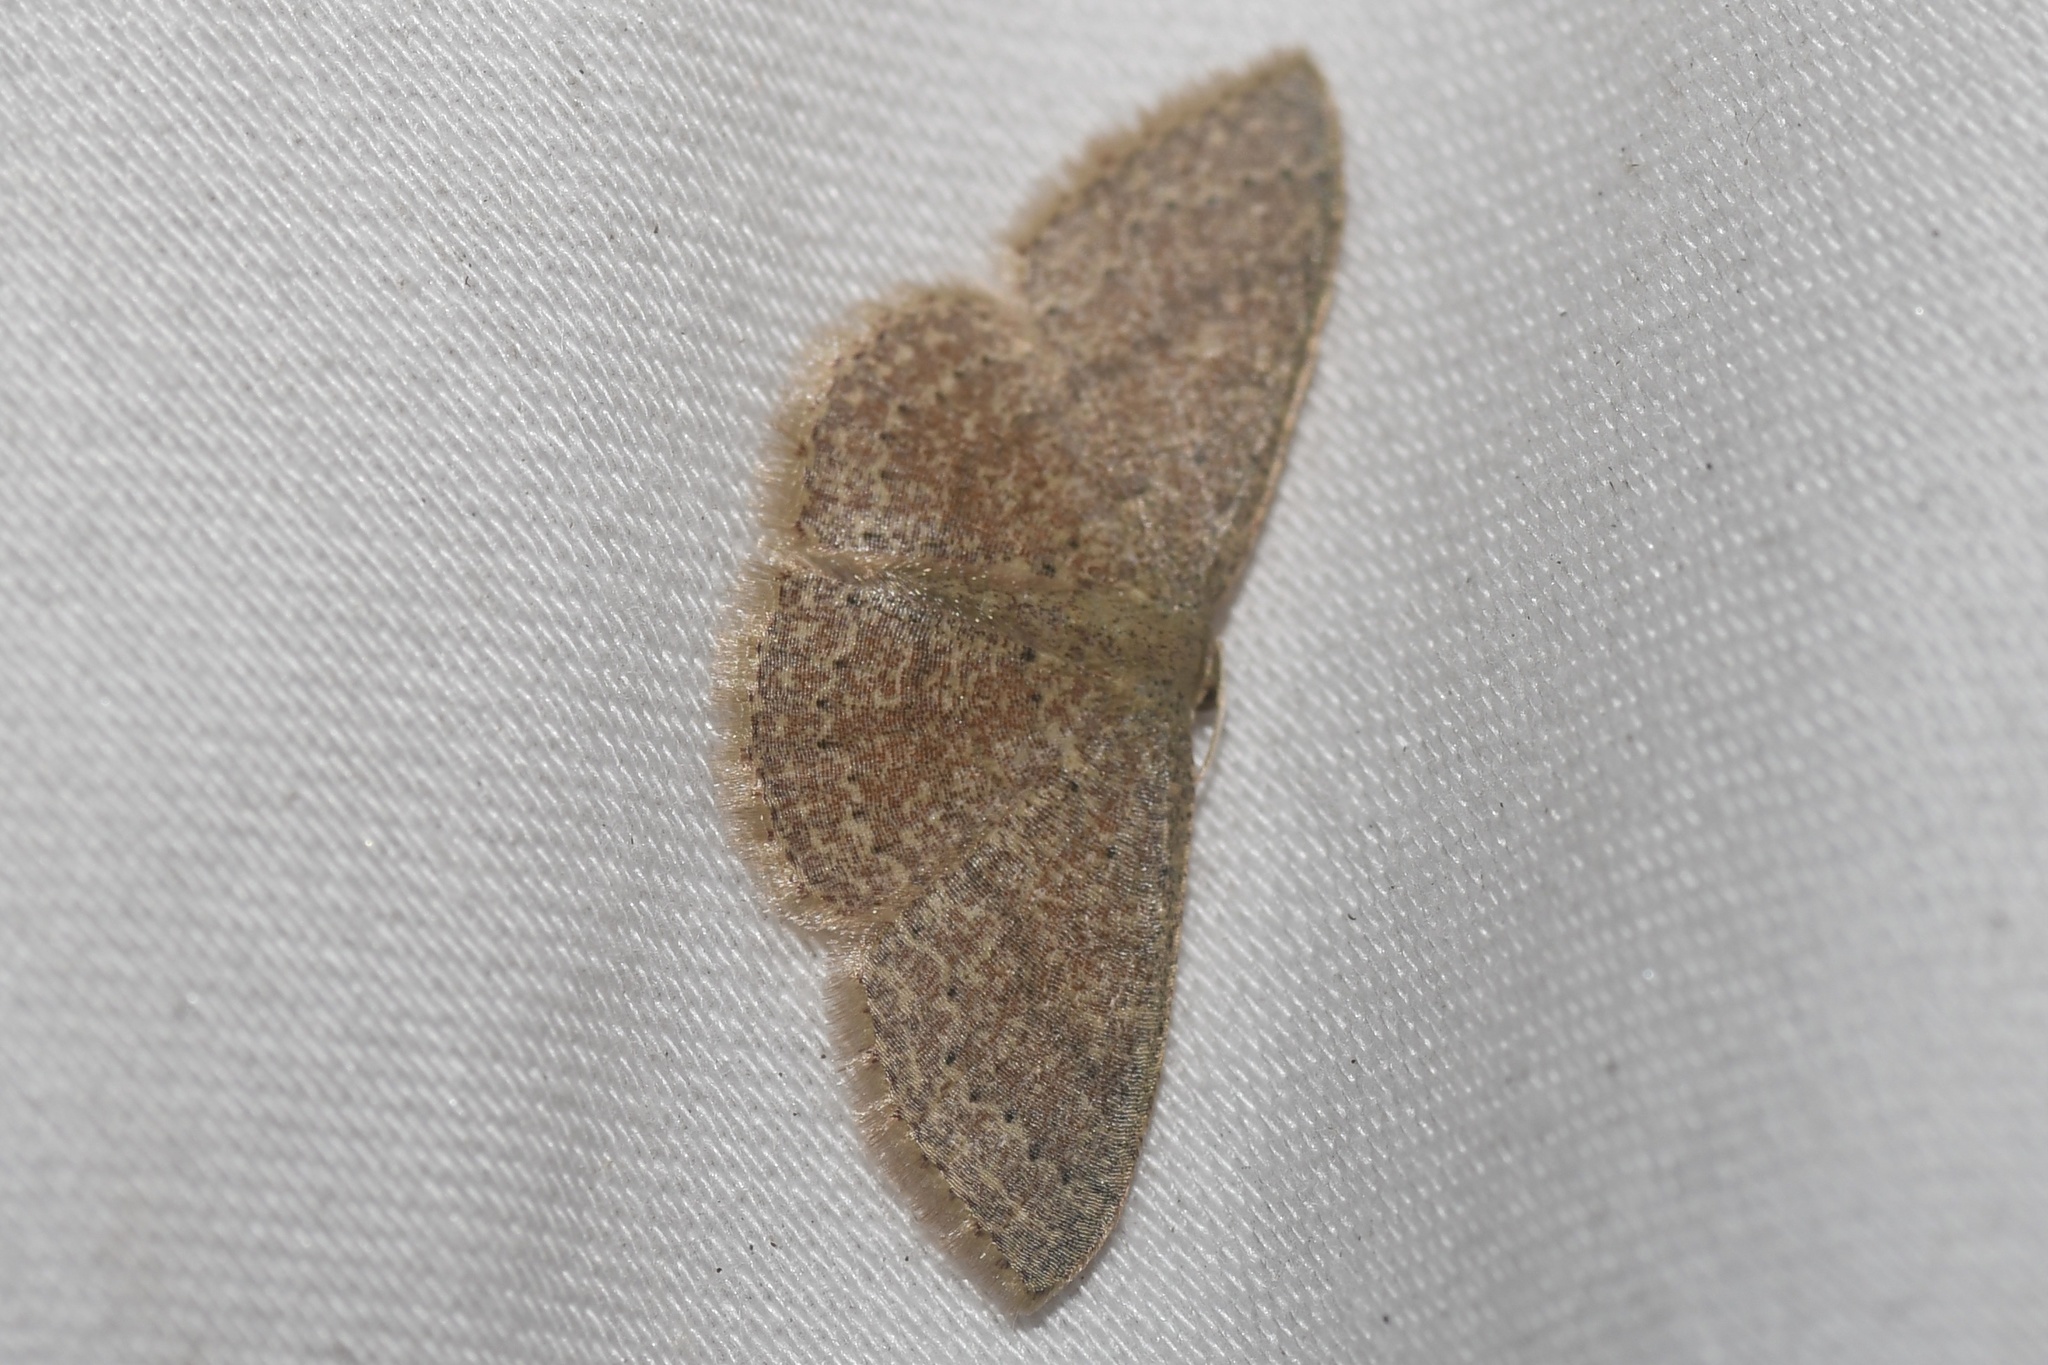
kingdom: Animalia
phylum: Arthropoda
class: Insecta
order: Lepidoptera
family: Geometridae
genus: Pleuroprucha
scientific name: Pleuroprucha insulsaria
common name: Common tan wave
